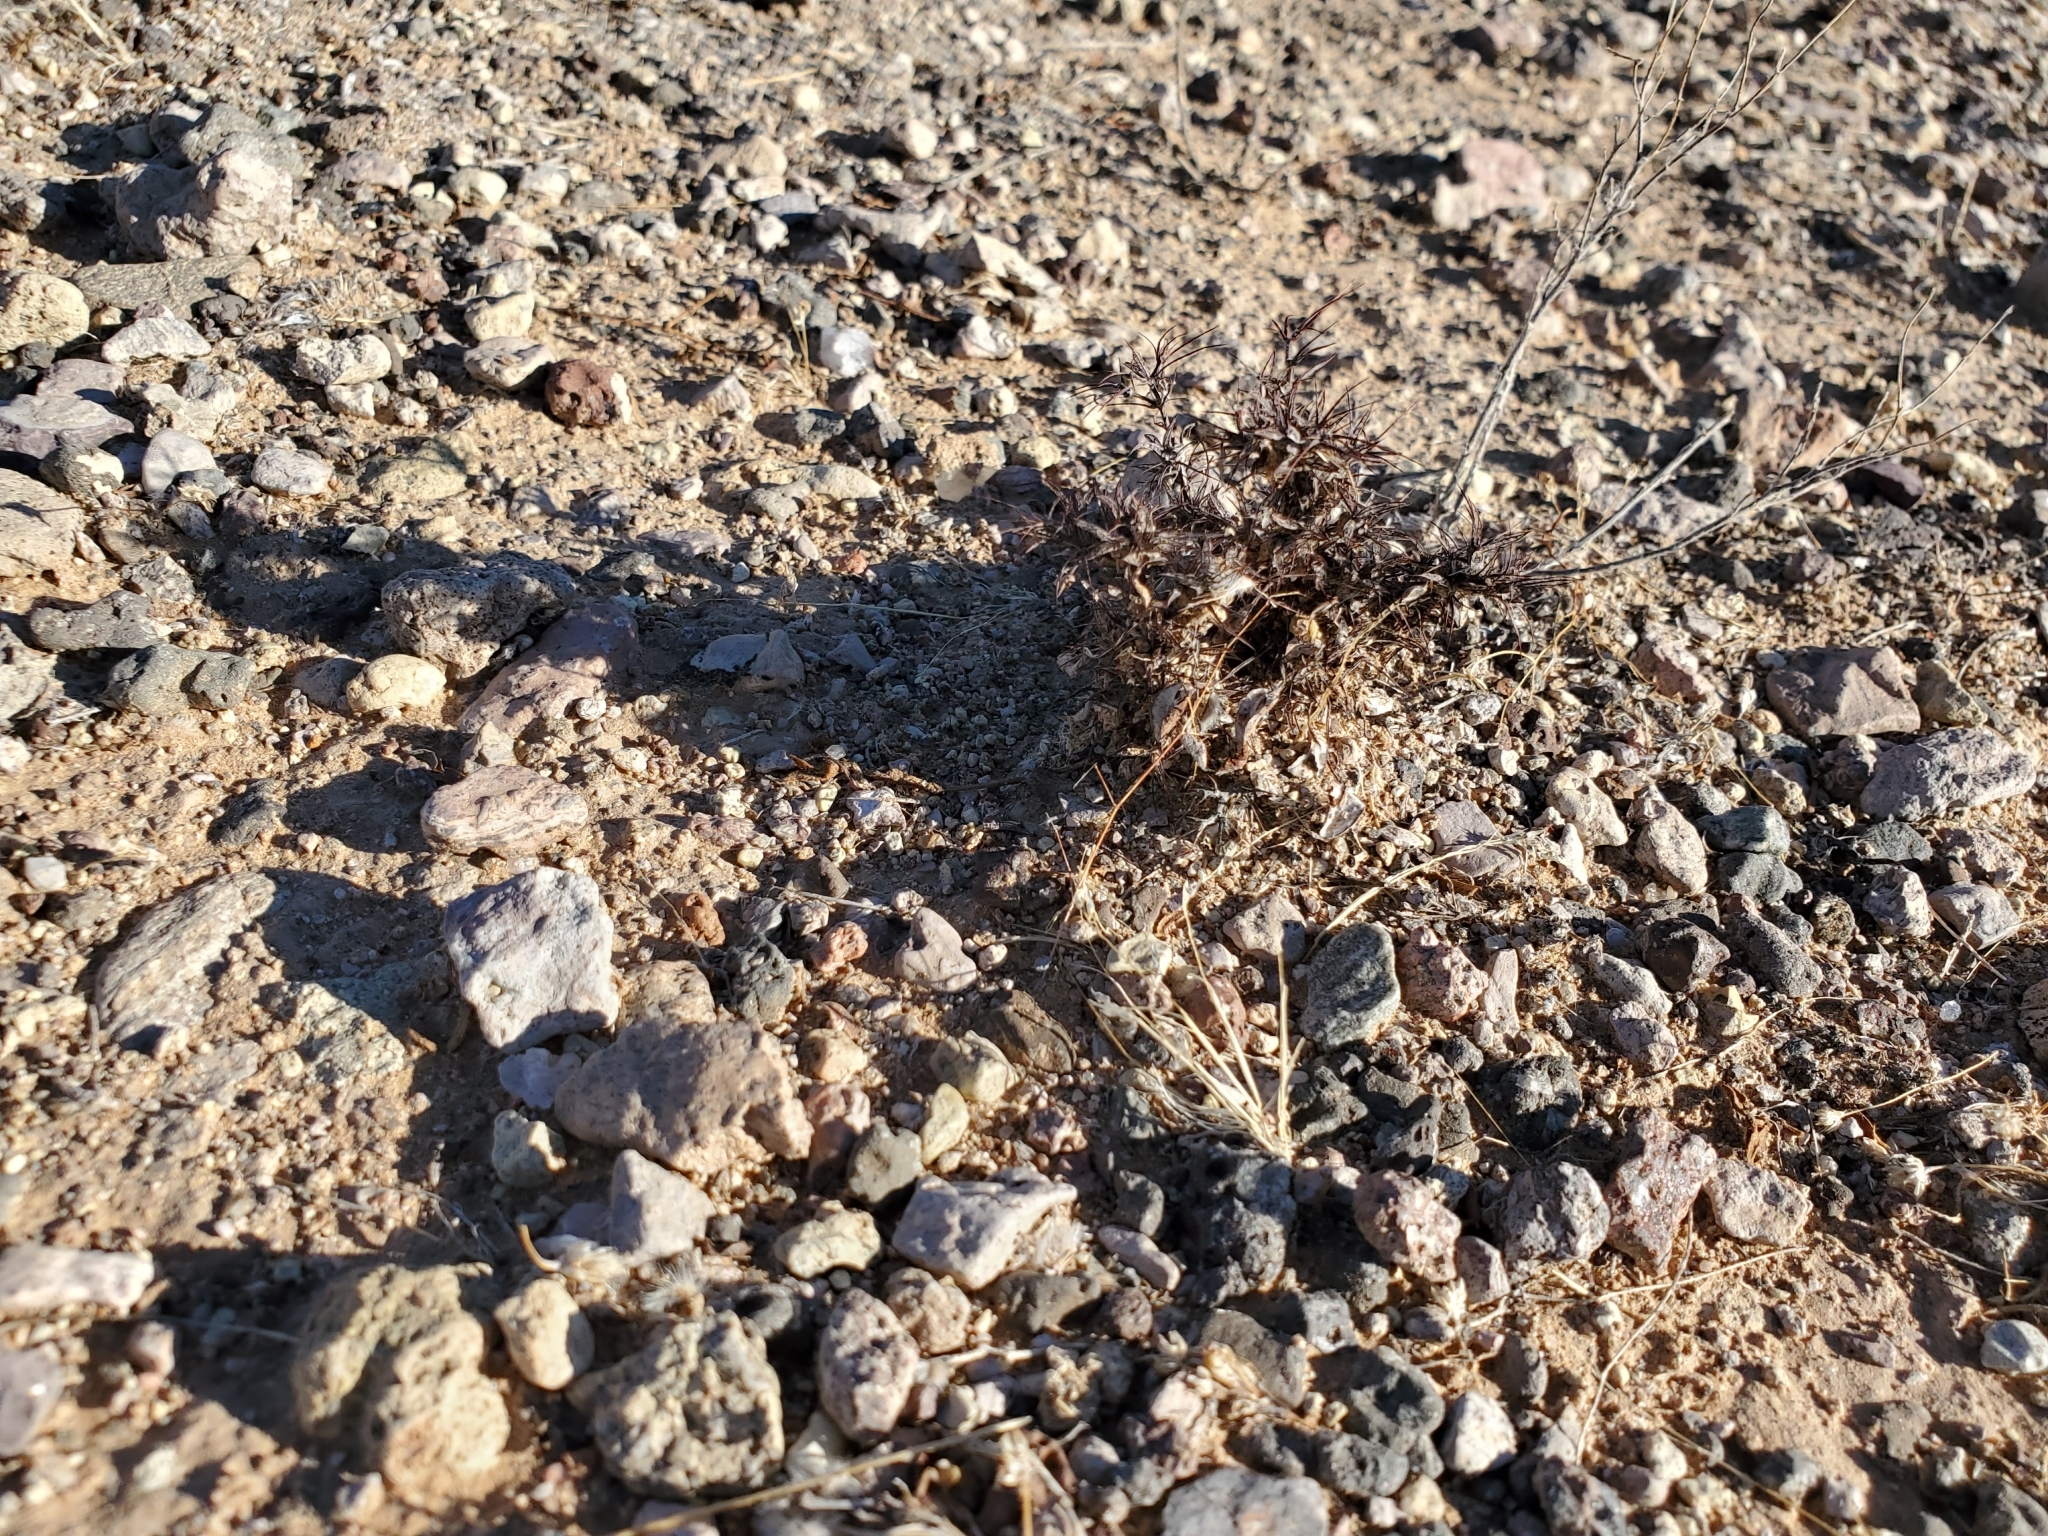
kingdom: Plantae
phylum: Tracheophyta
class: Magnoliopsida
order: Caryophyllales
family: Polygonaceae
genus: Chorizanthe
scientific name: Chorizanthe rigida
